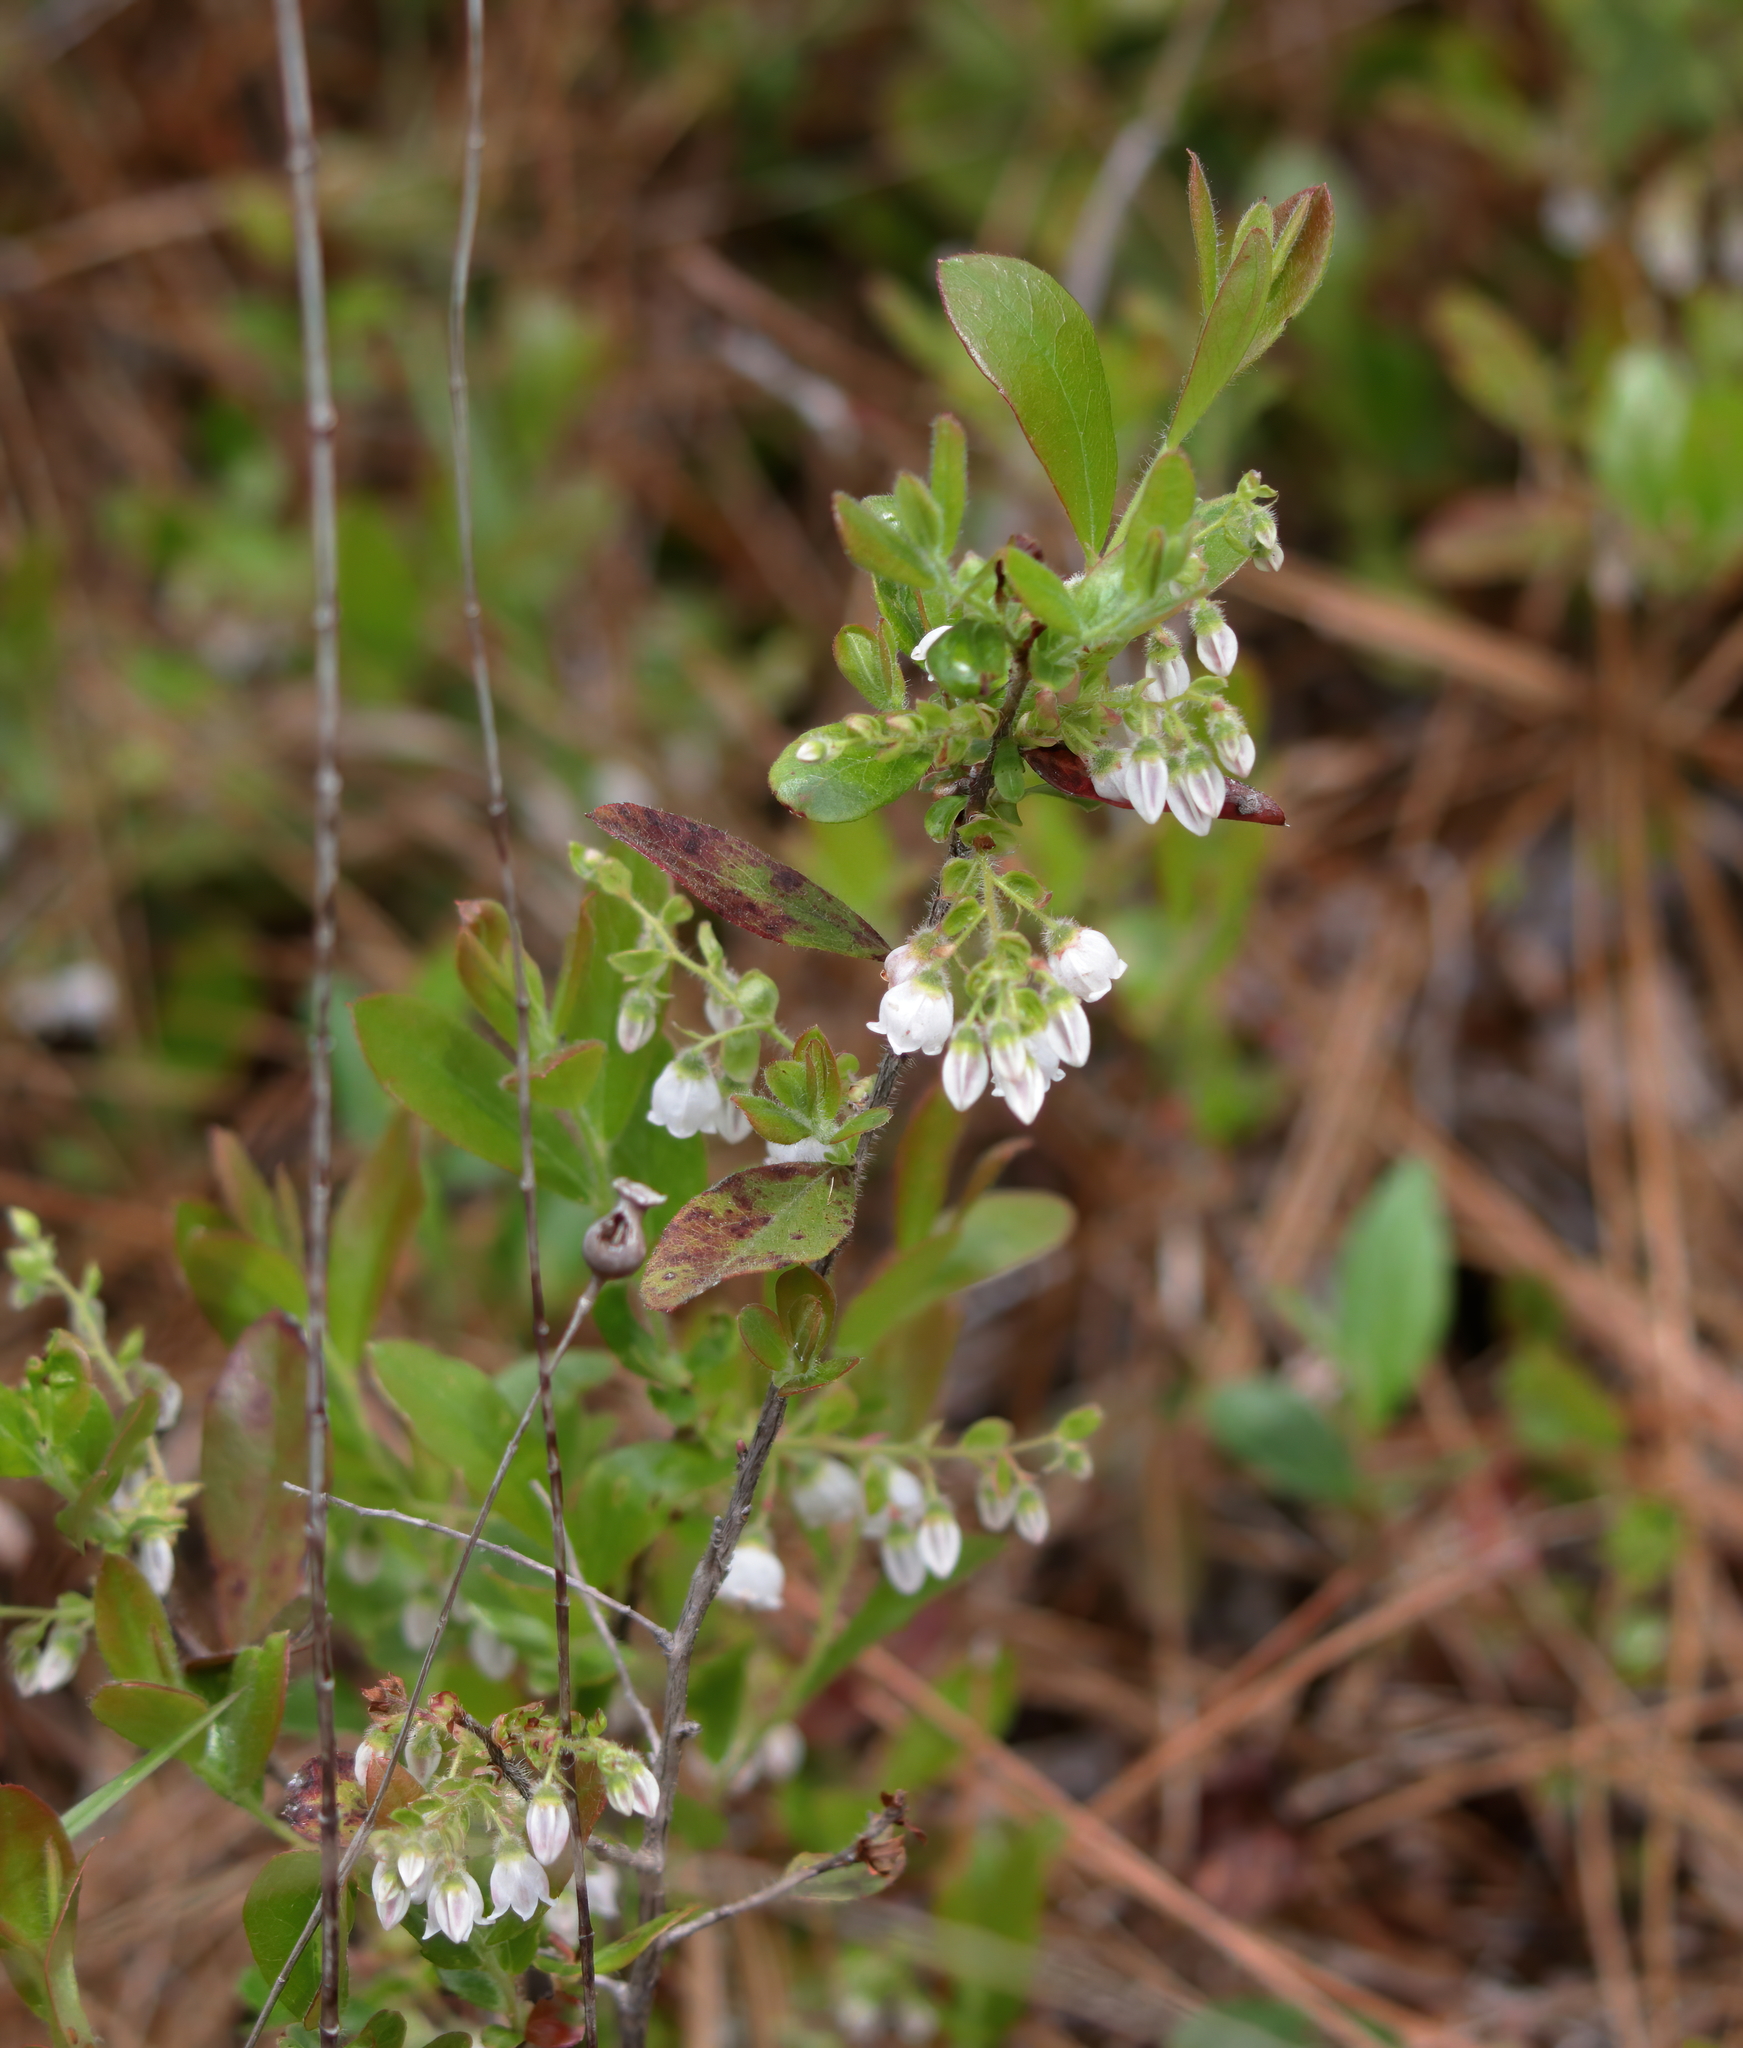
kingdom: Plantae
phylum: Tracheophyta
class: Magnoliopsida
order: Ericales
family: Ericaceae
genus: Gaylussacia
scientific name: Gaylussacia mosieri
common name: Hirsute huckleberry
